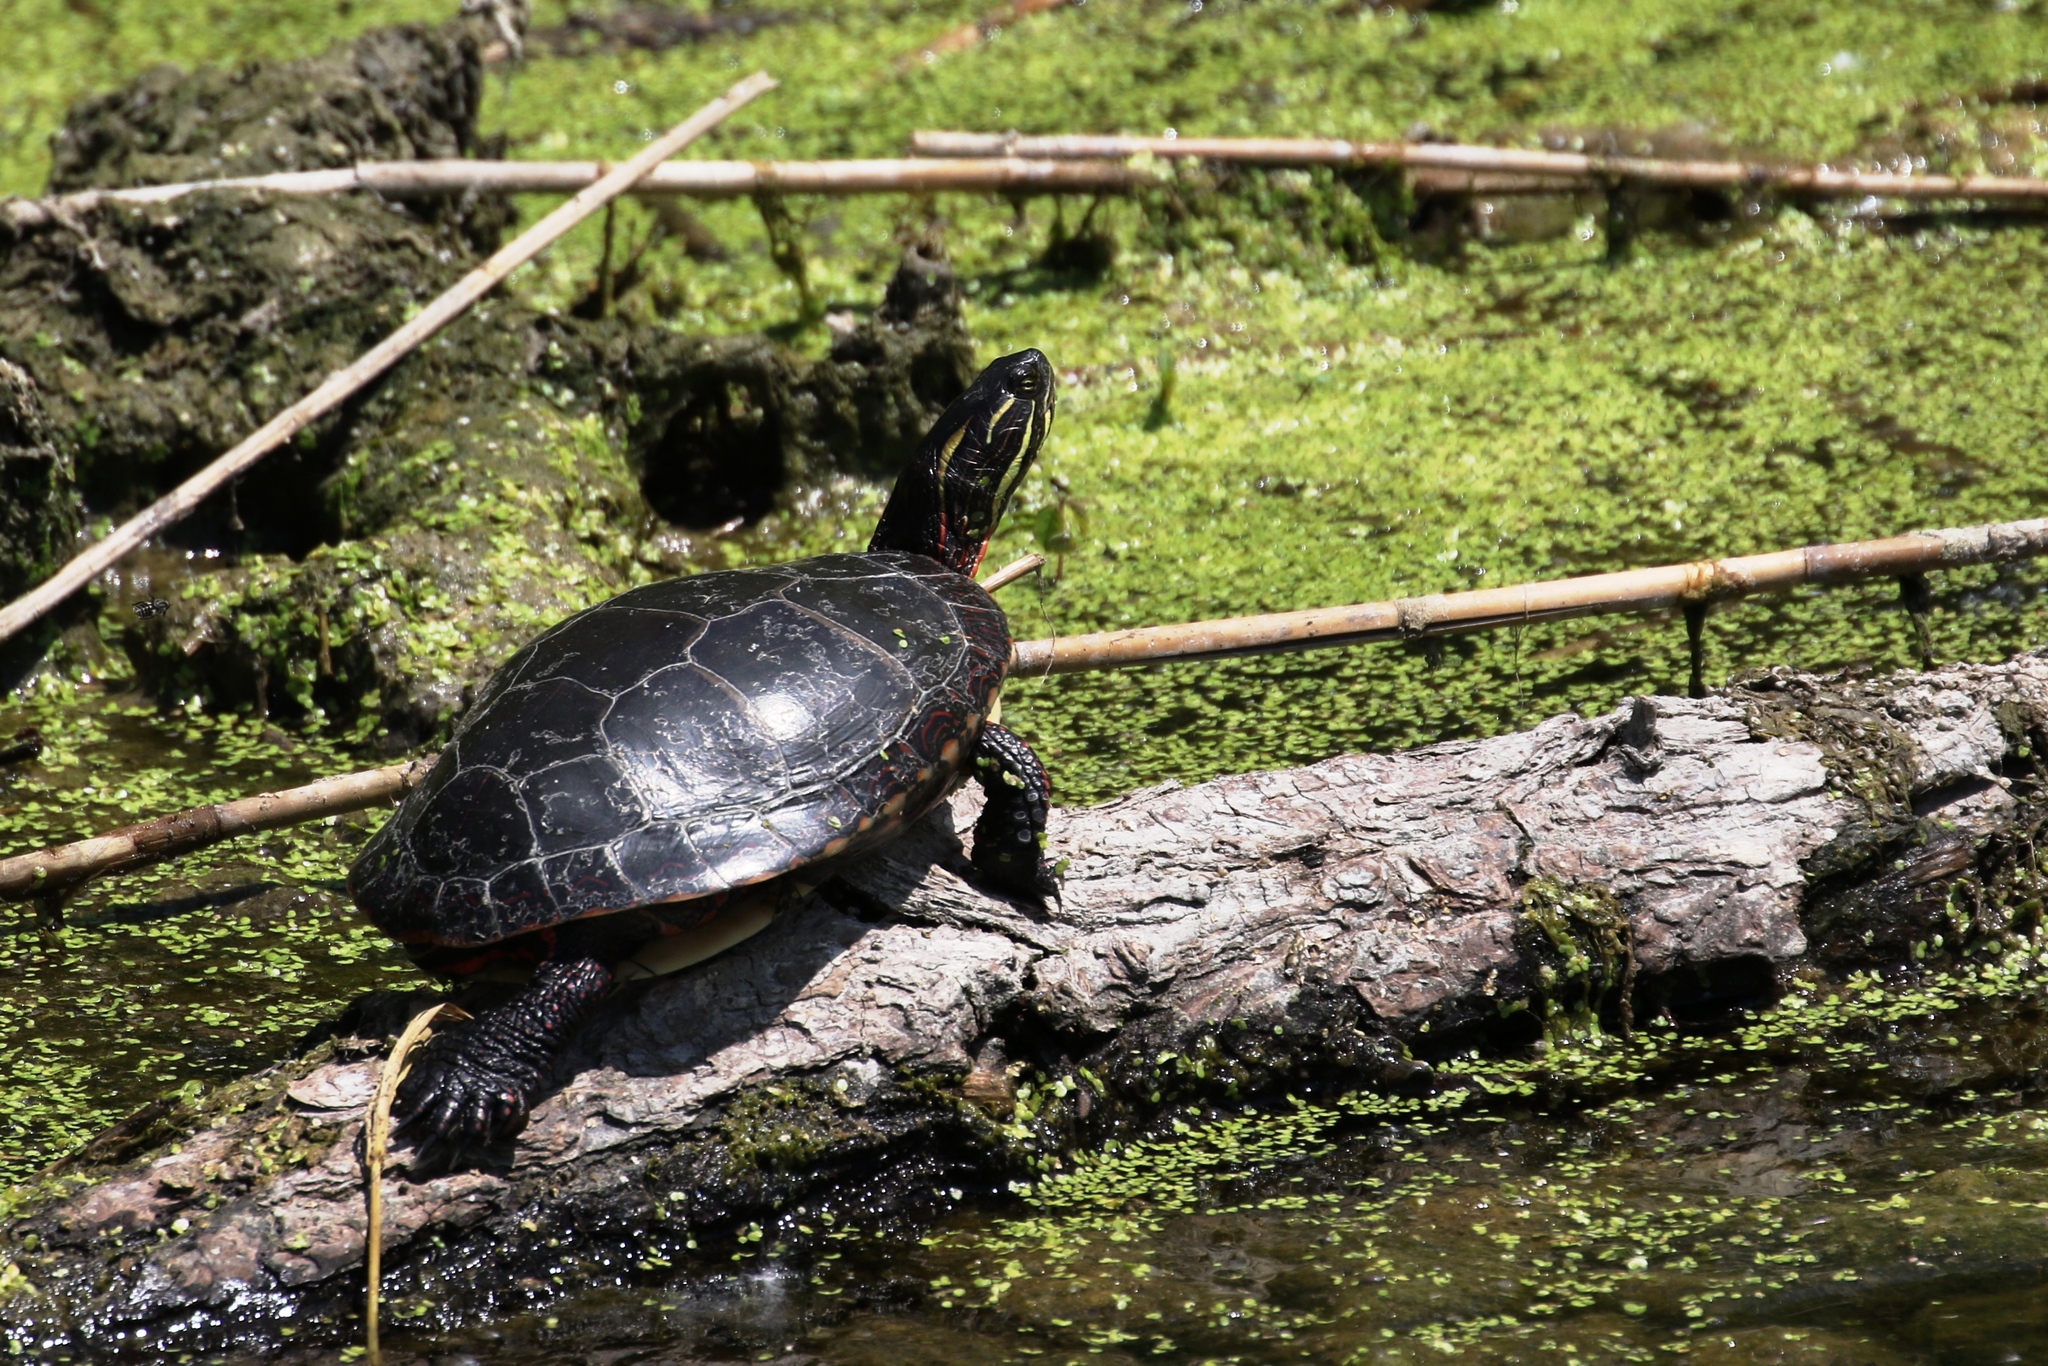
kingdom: Animalia
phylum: Chordata
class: Testudines
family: Emydidae
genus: Chrysemys
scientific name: Chrysemys picta
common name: Painted turtle
